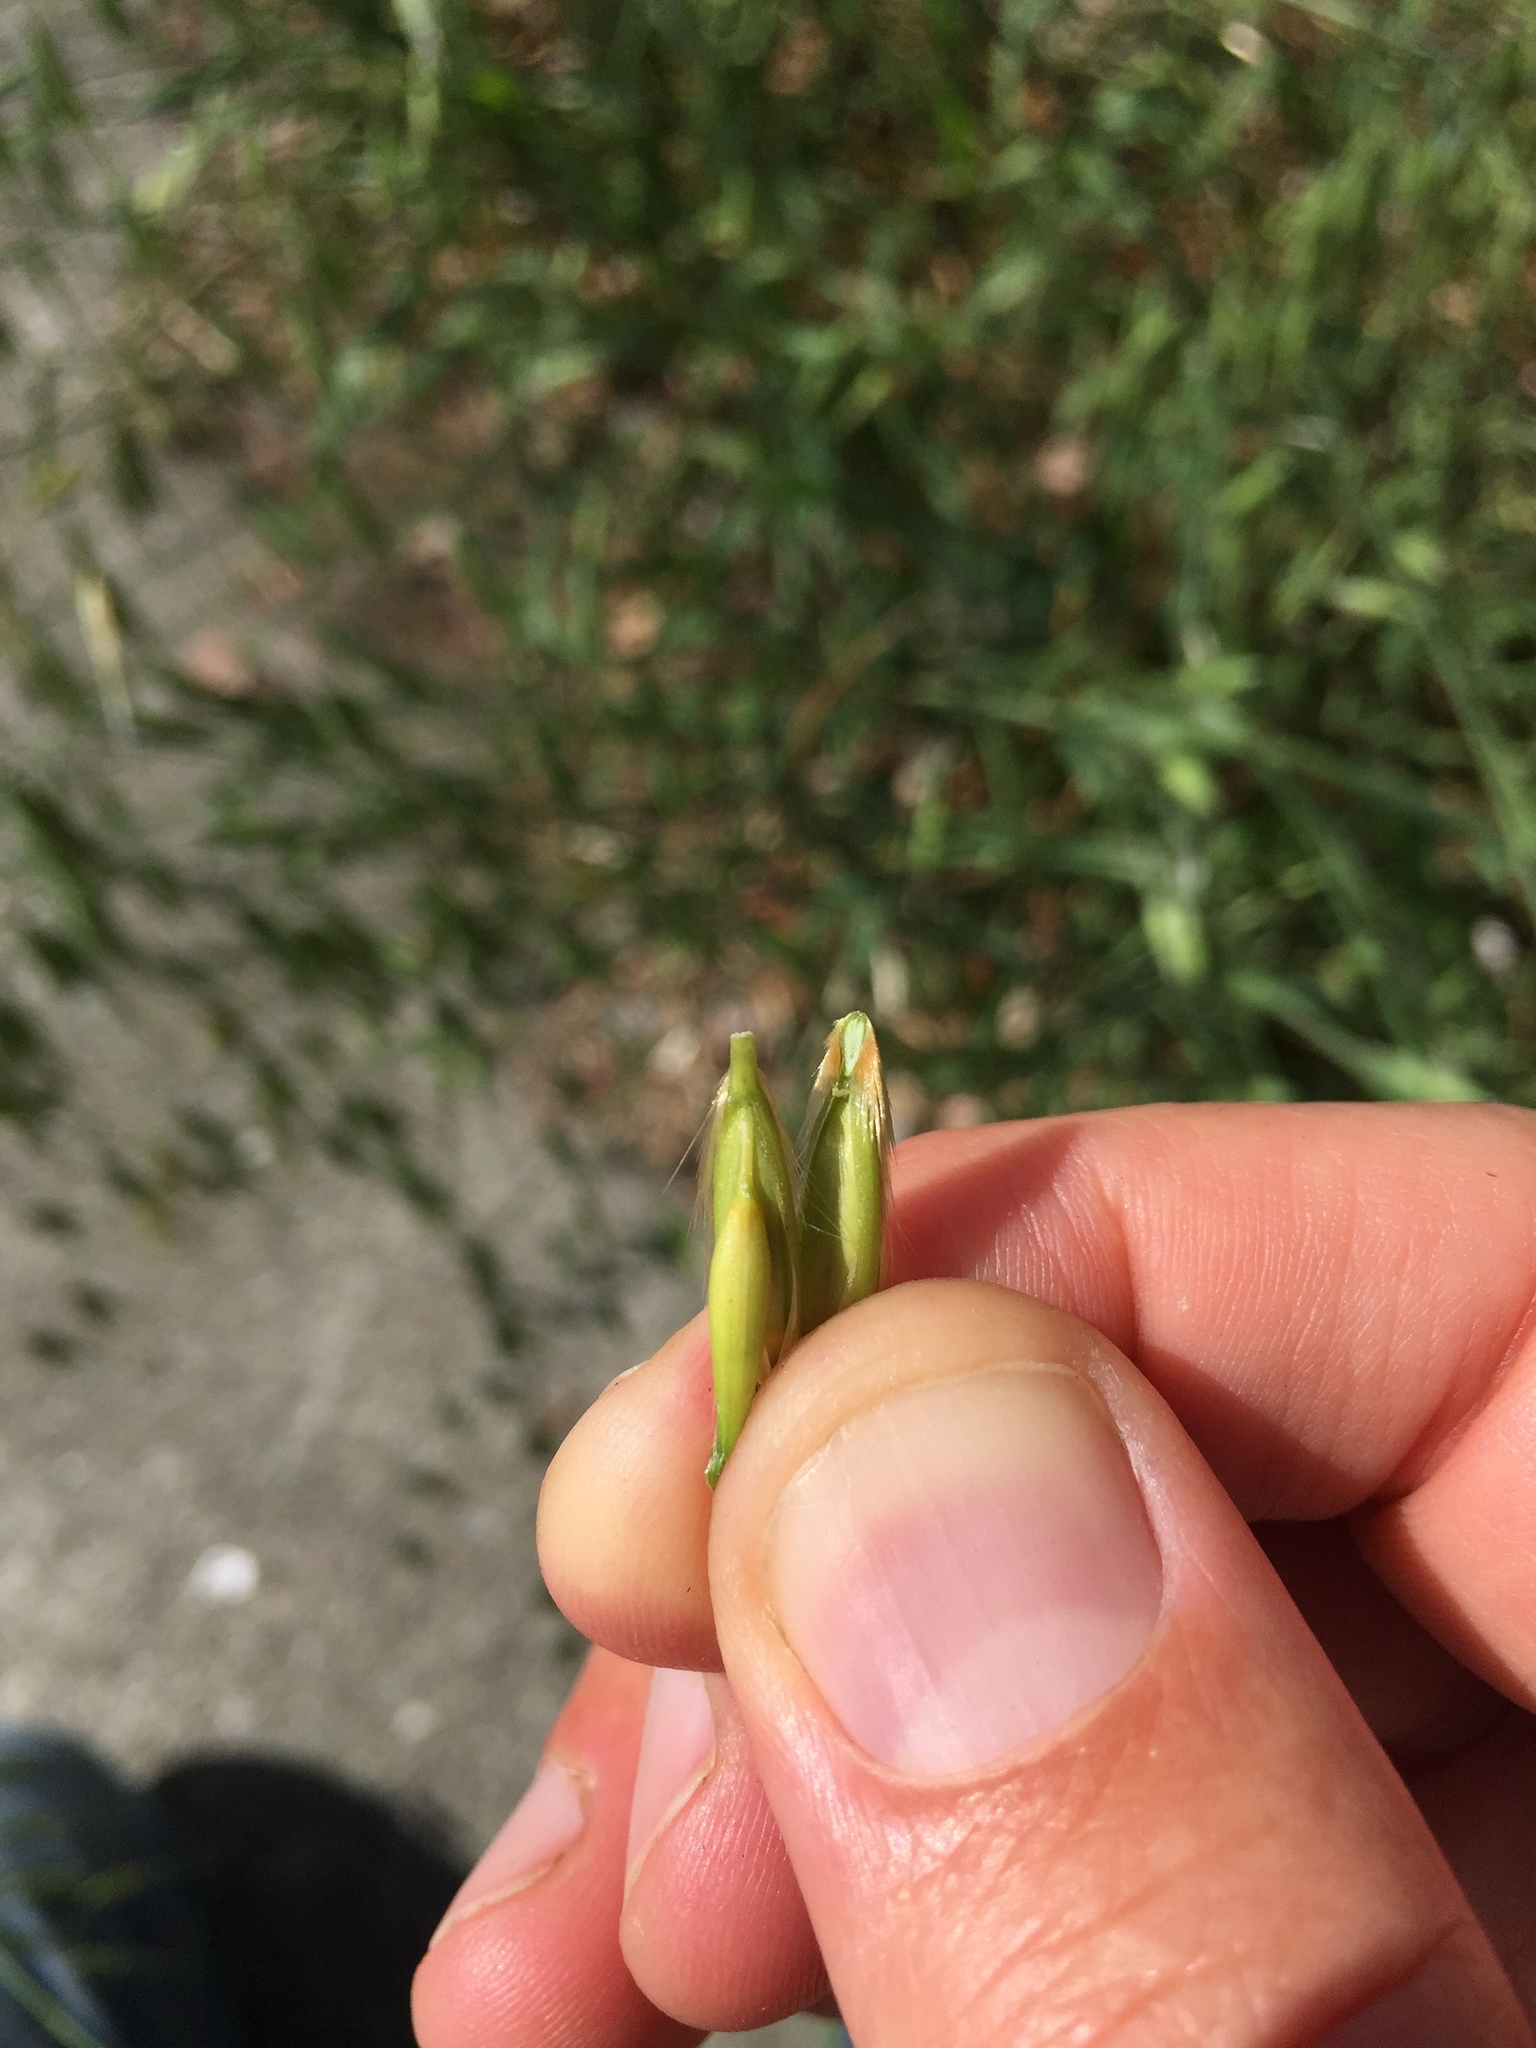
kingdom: Plantae
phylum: Tracheophyta
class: Liliopsida
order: Poales
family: Poaceae
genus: Avena
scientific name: Avena sterilis
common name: Animated oat
